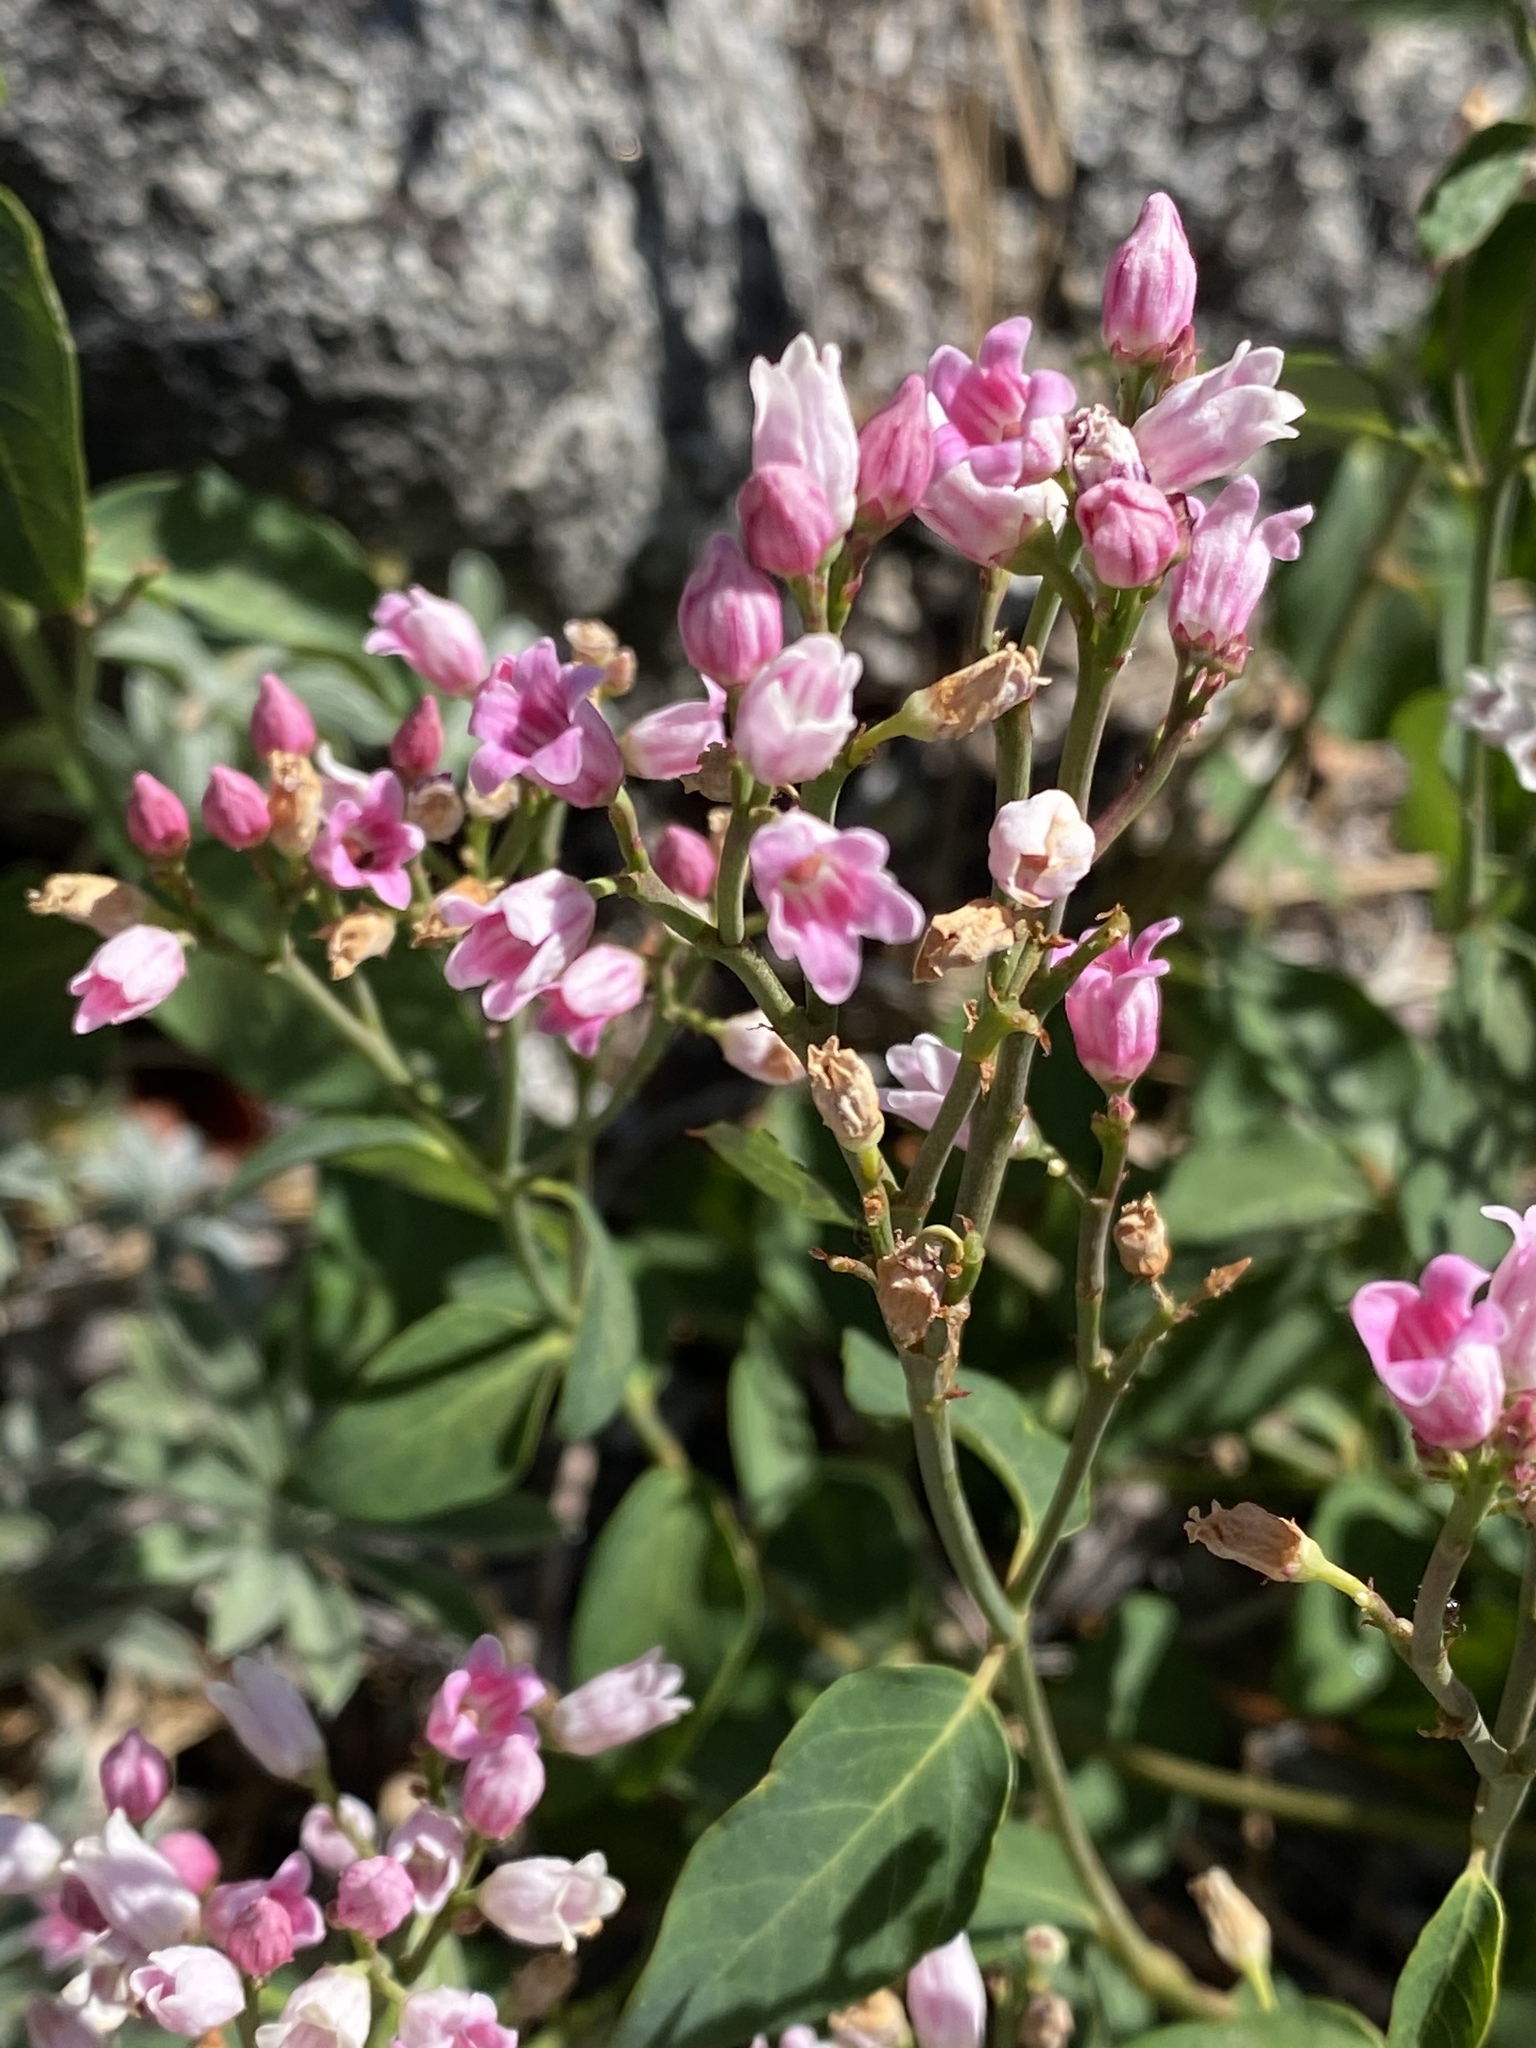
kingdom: Plantae
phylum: Tracheophyta
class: Magnoliopsida
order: Gentianales
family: Apocynaceae
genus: Apocynum
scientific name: Apocynum androsaemifolium
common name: Spreading dogbane
